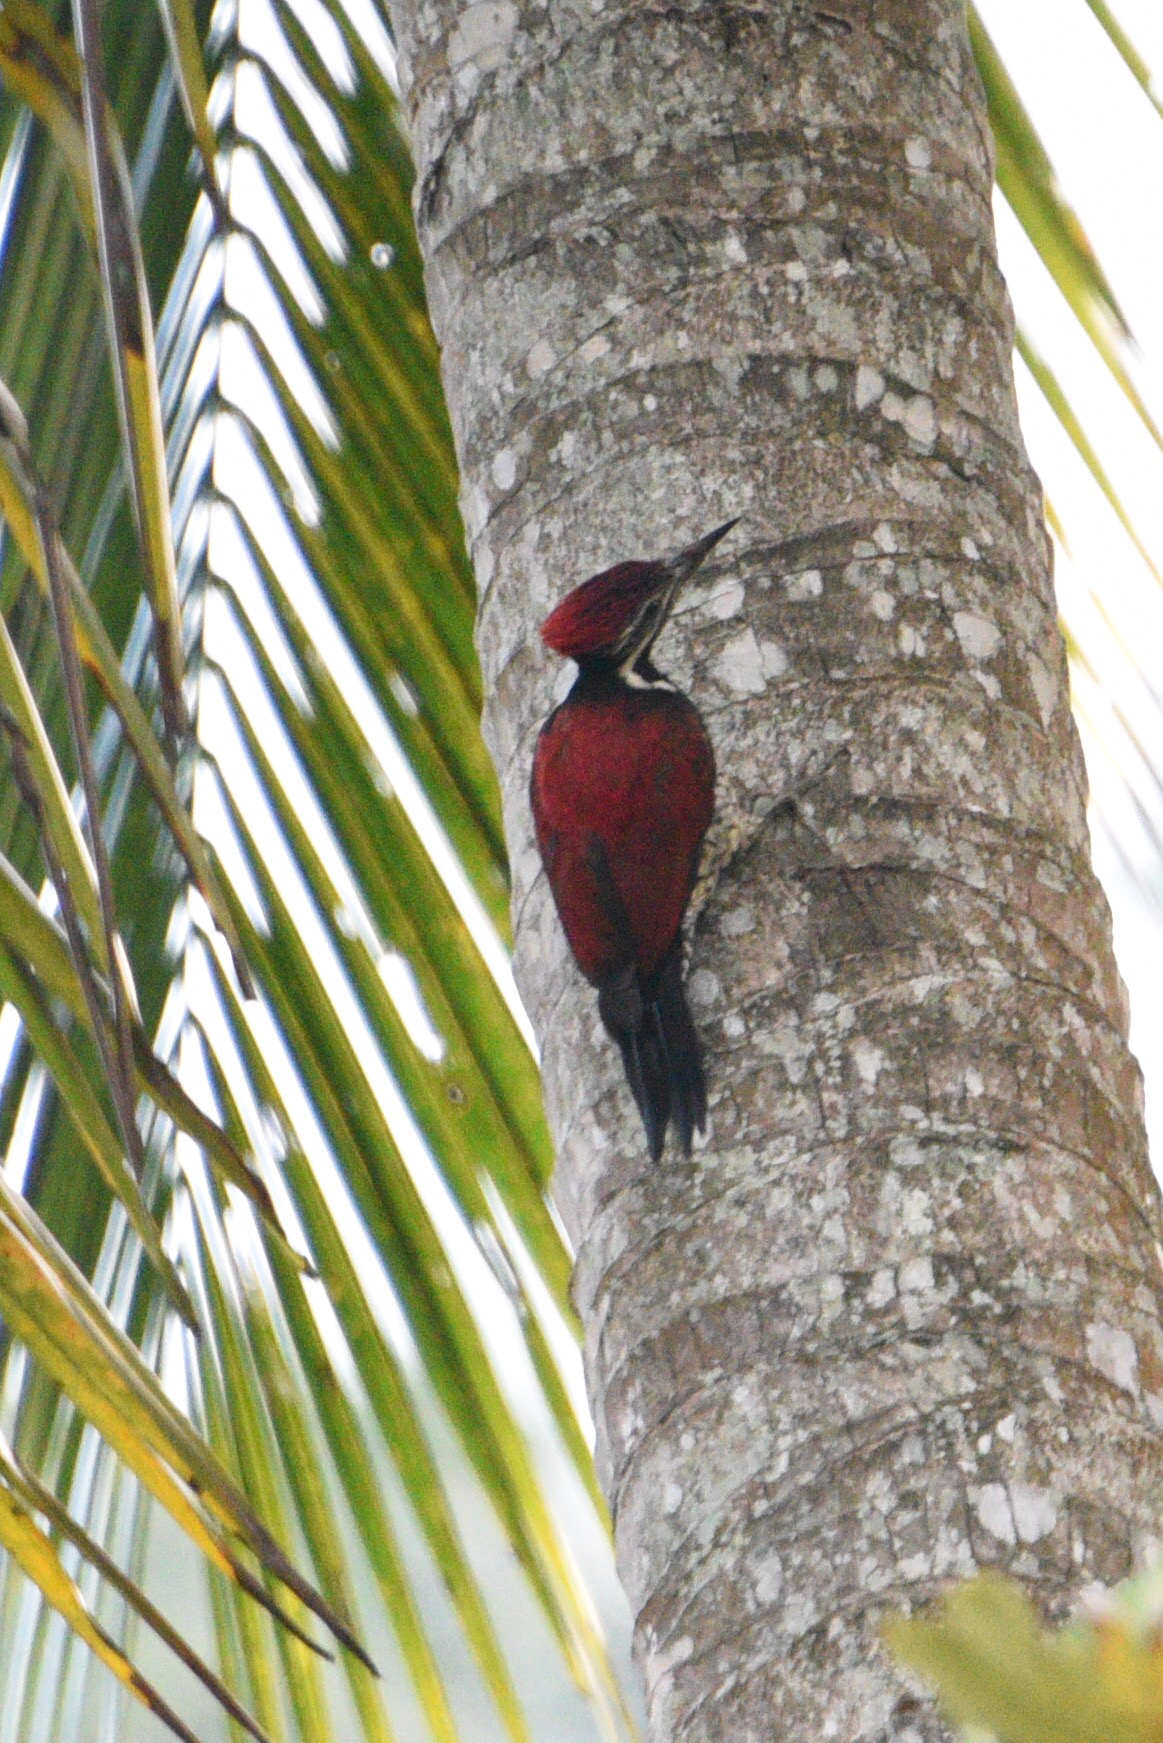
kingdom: Animalia
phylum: Chordata
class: Aves
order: Piciformes
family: Picidae
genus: Dinopium
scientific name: Dinopium psarodes
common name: Red-backed flameback
